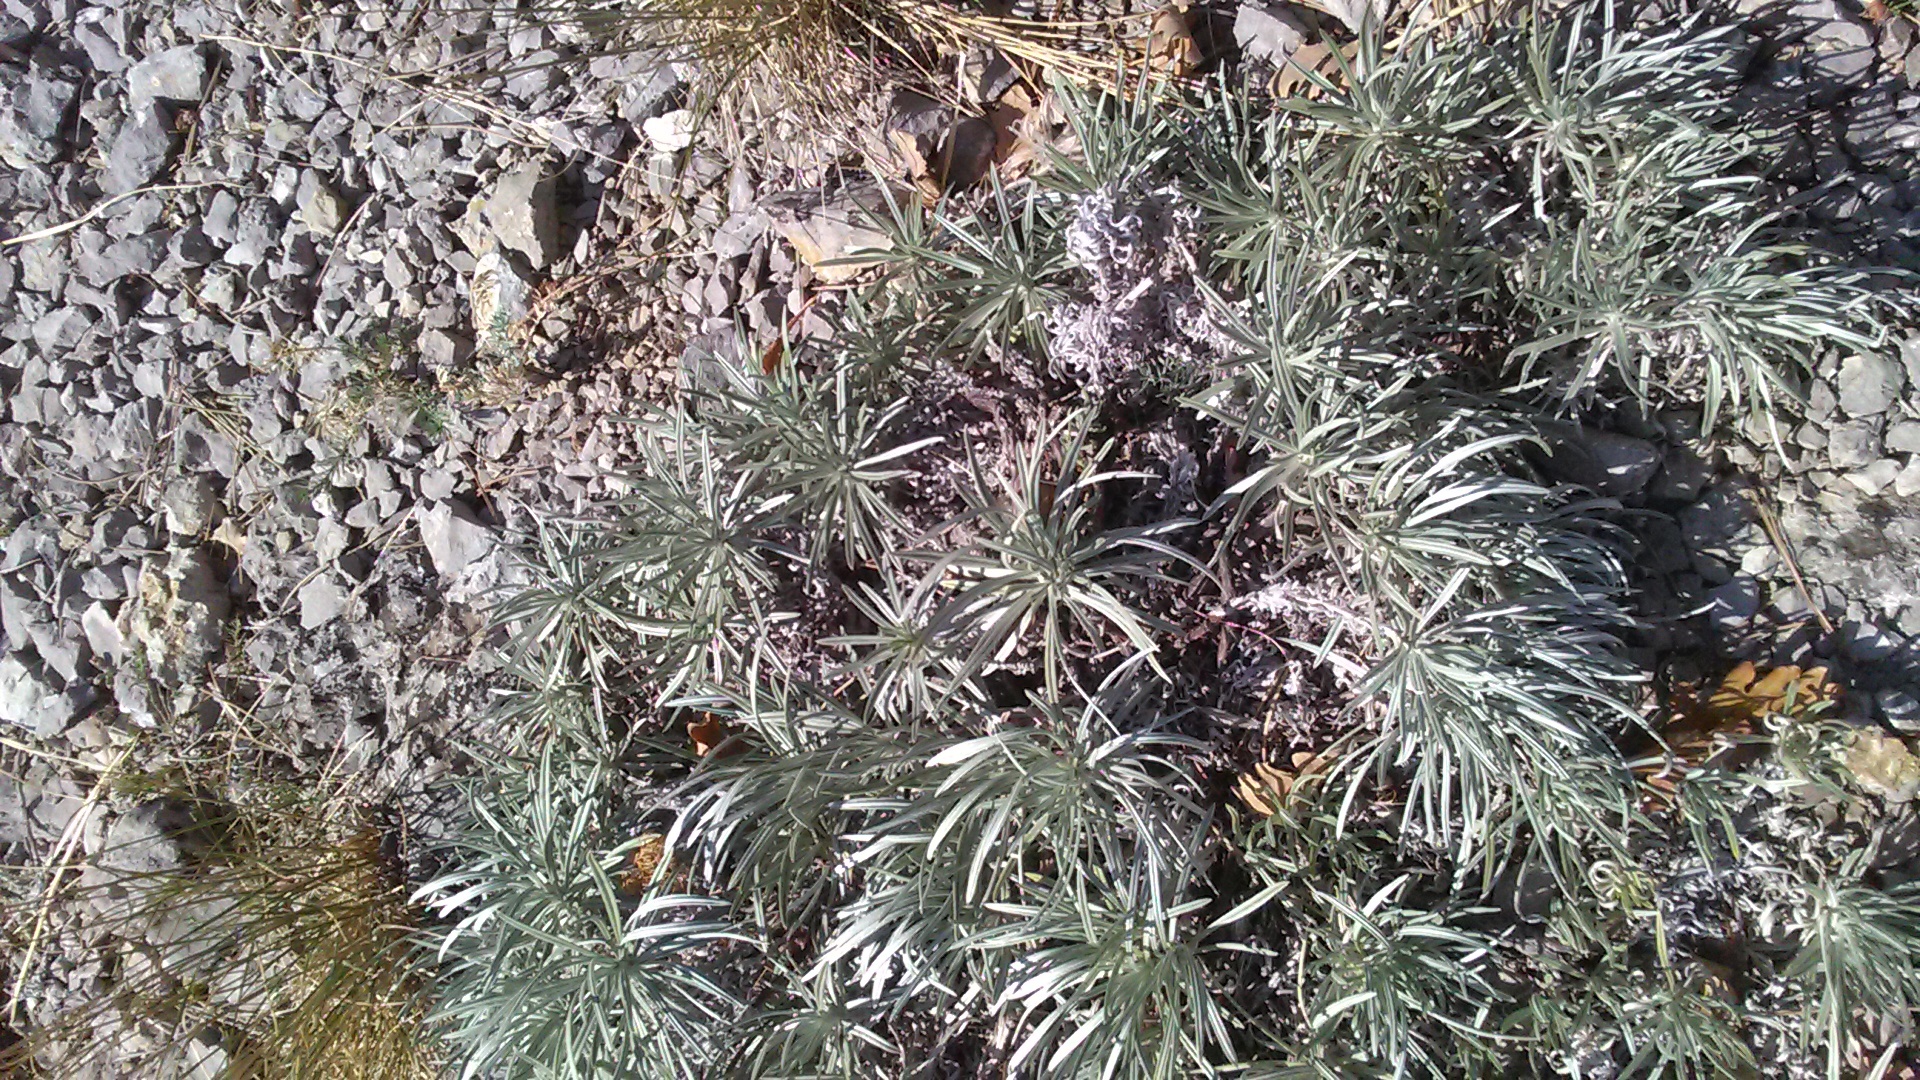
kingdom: Plantae
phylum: Tracheophyta
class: Magnoliopsida
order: Boraginales
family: Boraginaceae
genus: Onosma
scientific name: Onosma polyphylla
